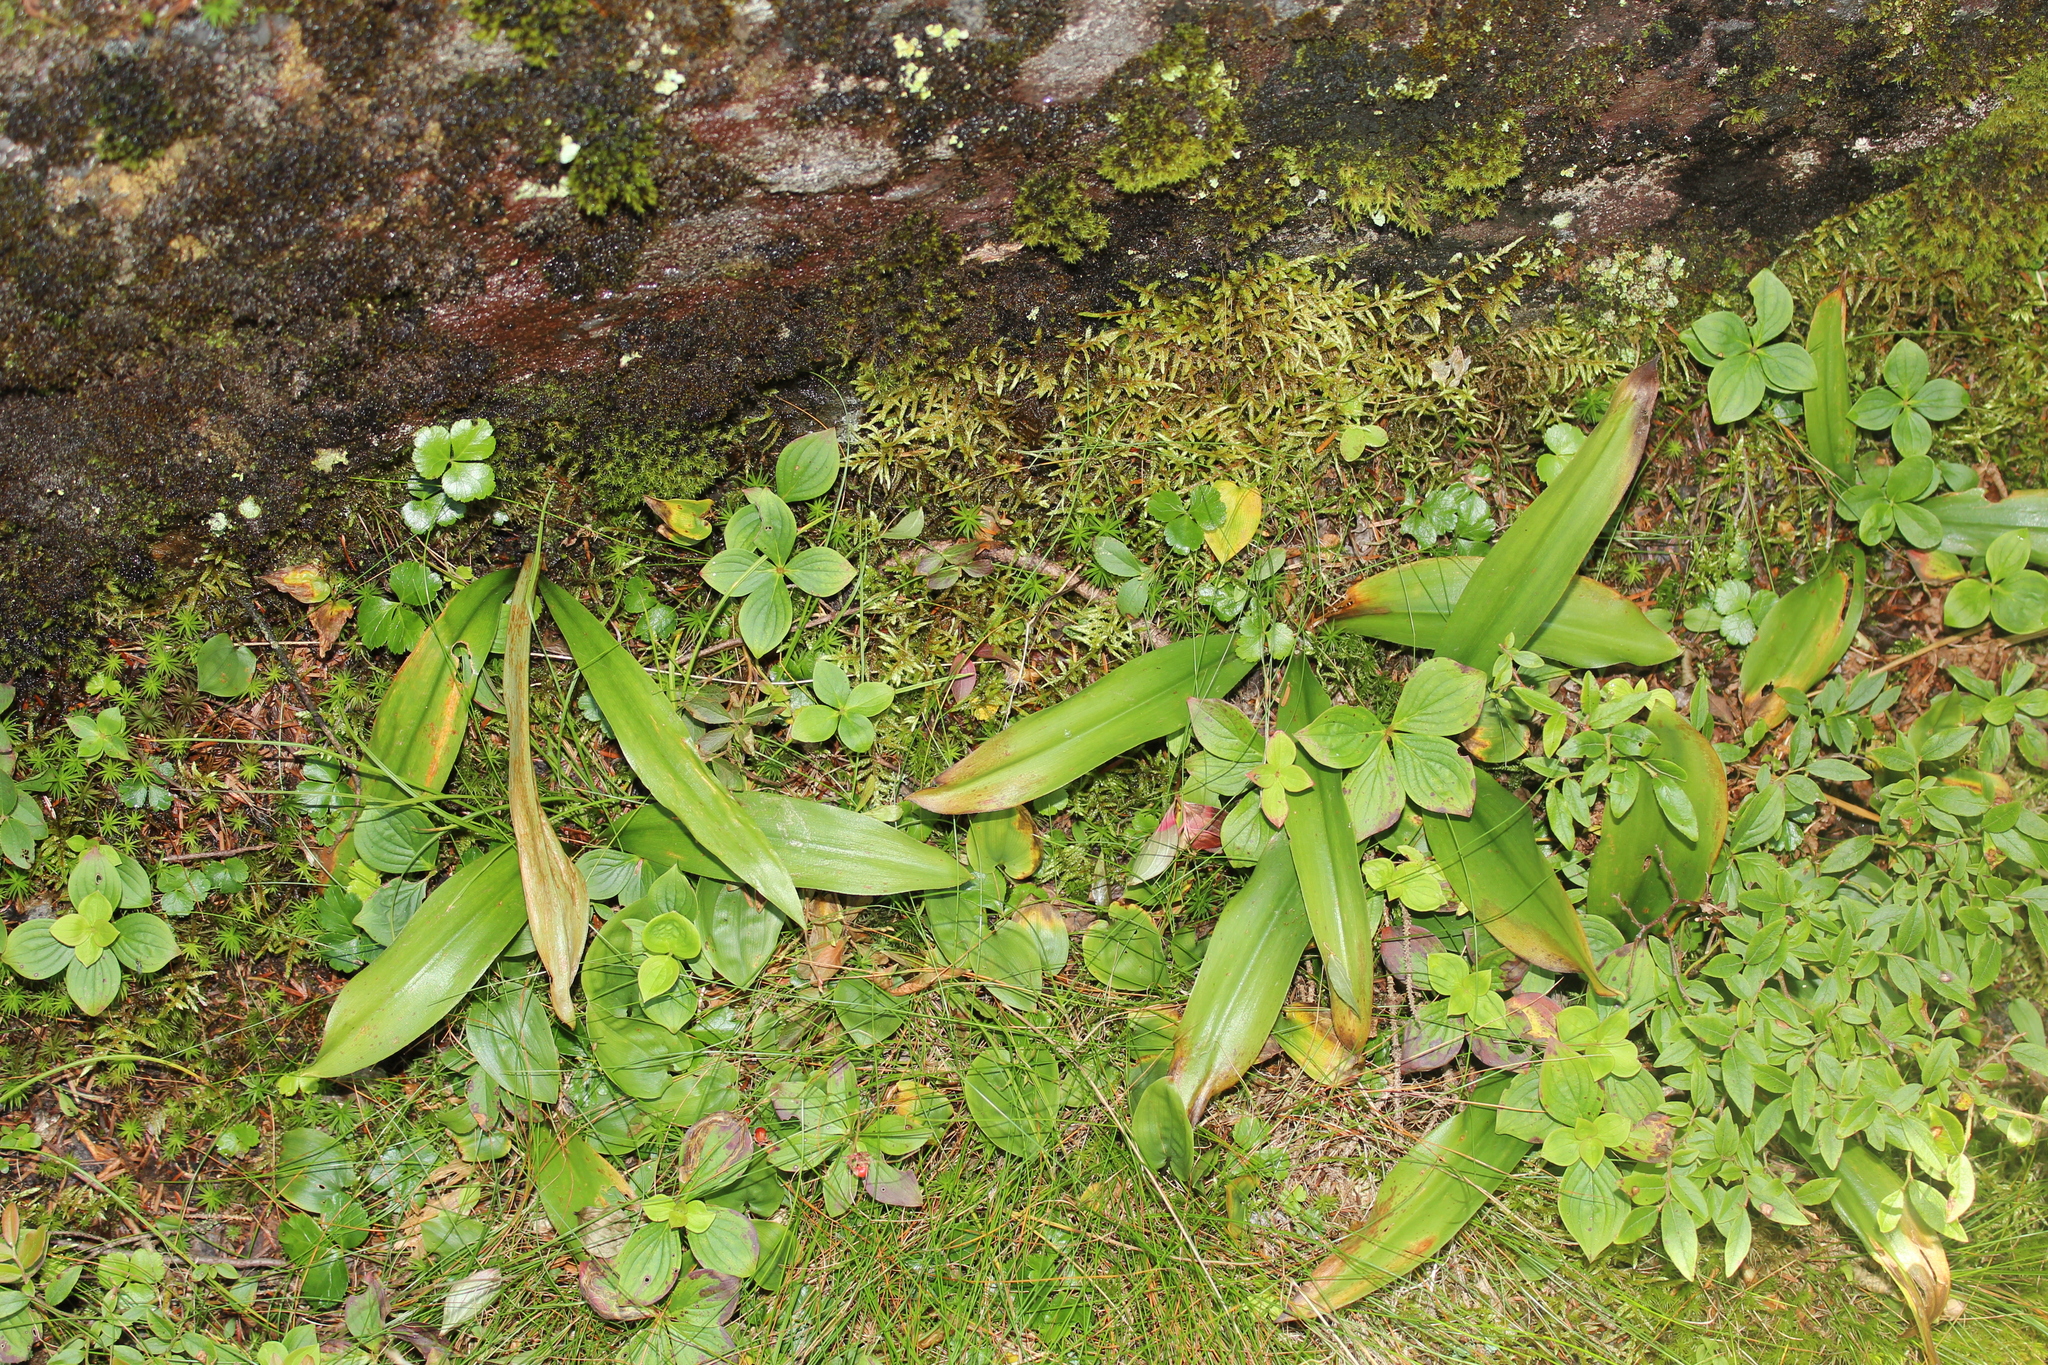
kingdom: Plantae
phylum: Tracheophyta
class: Liliopsida
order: Liliales
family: Liliaceae
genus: Clintonia
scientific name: Clintonia borealis
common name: Yellow clintonia
